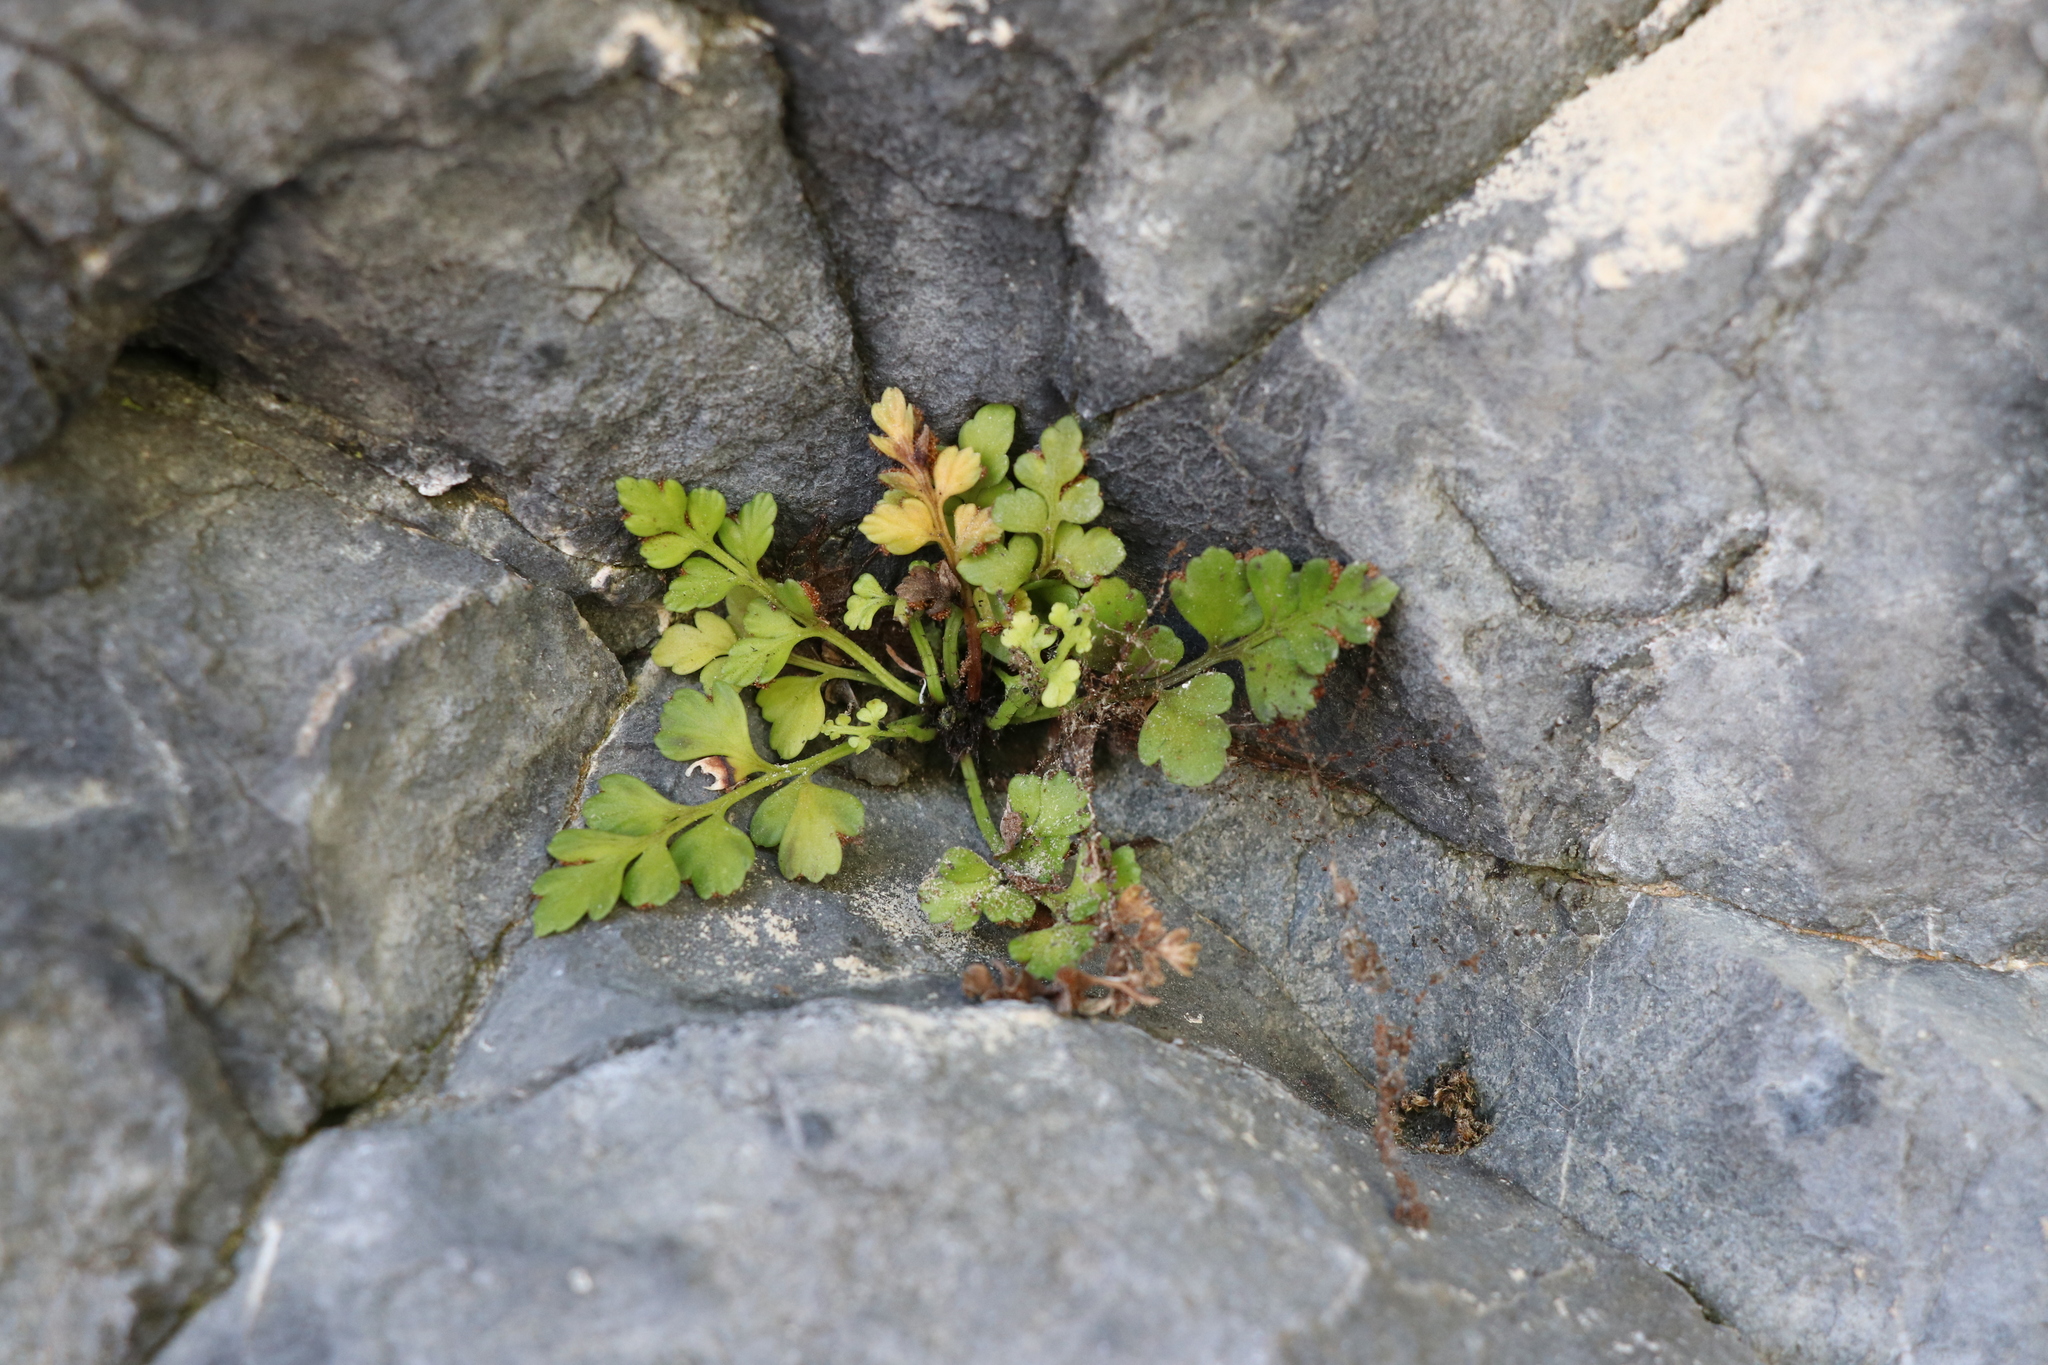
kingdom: Plantae
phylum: Tracheophyta
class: Polypodiopsida
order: Polypodiales
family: Aspleniaceae
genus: Asplenium
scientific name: Asplenium appendiculatum
